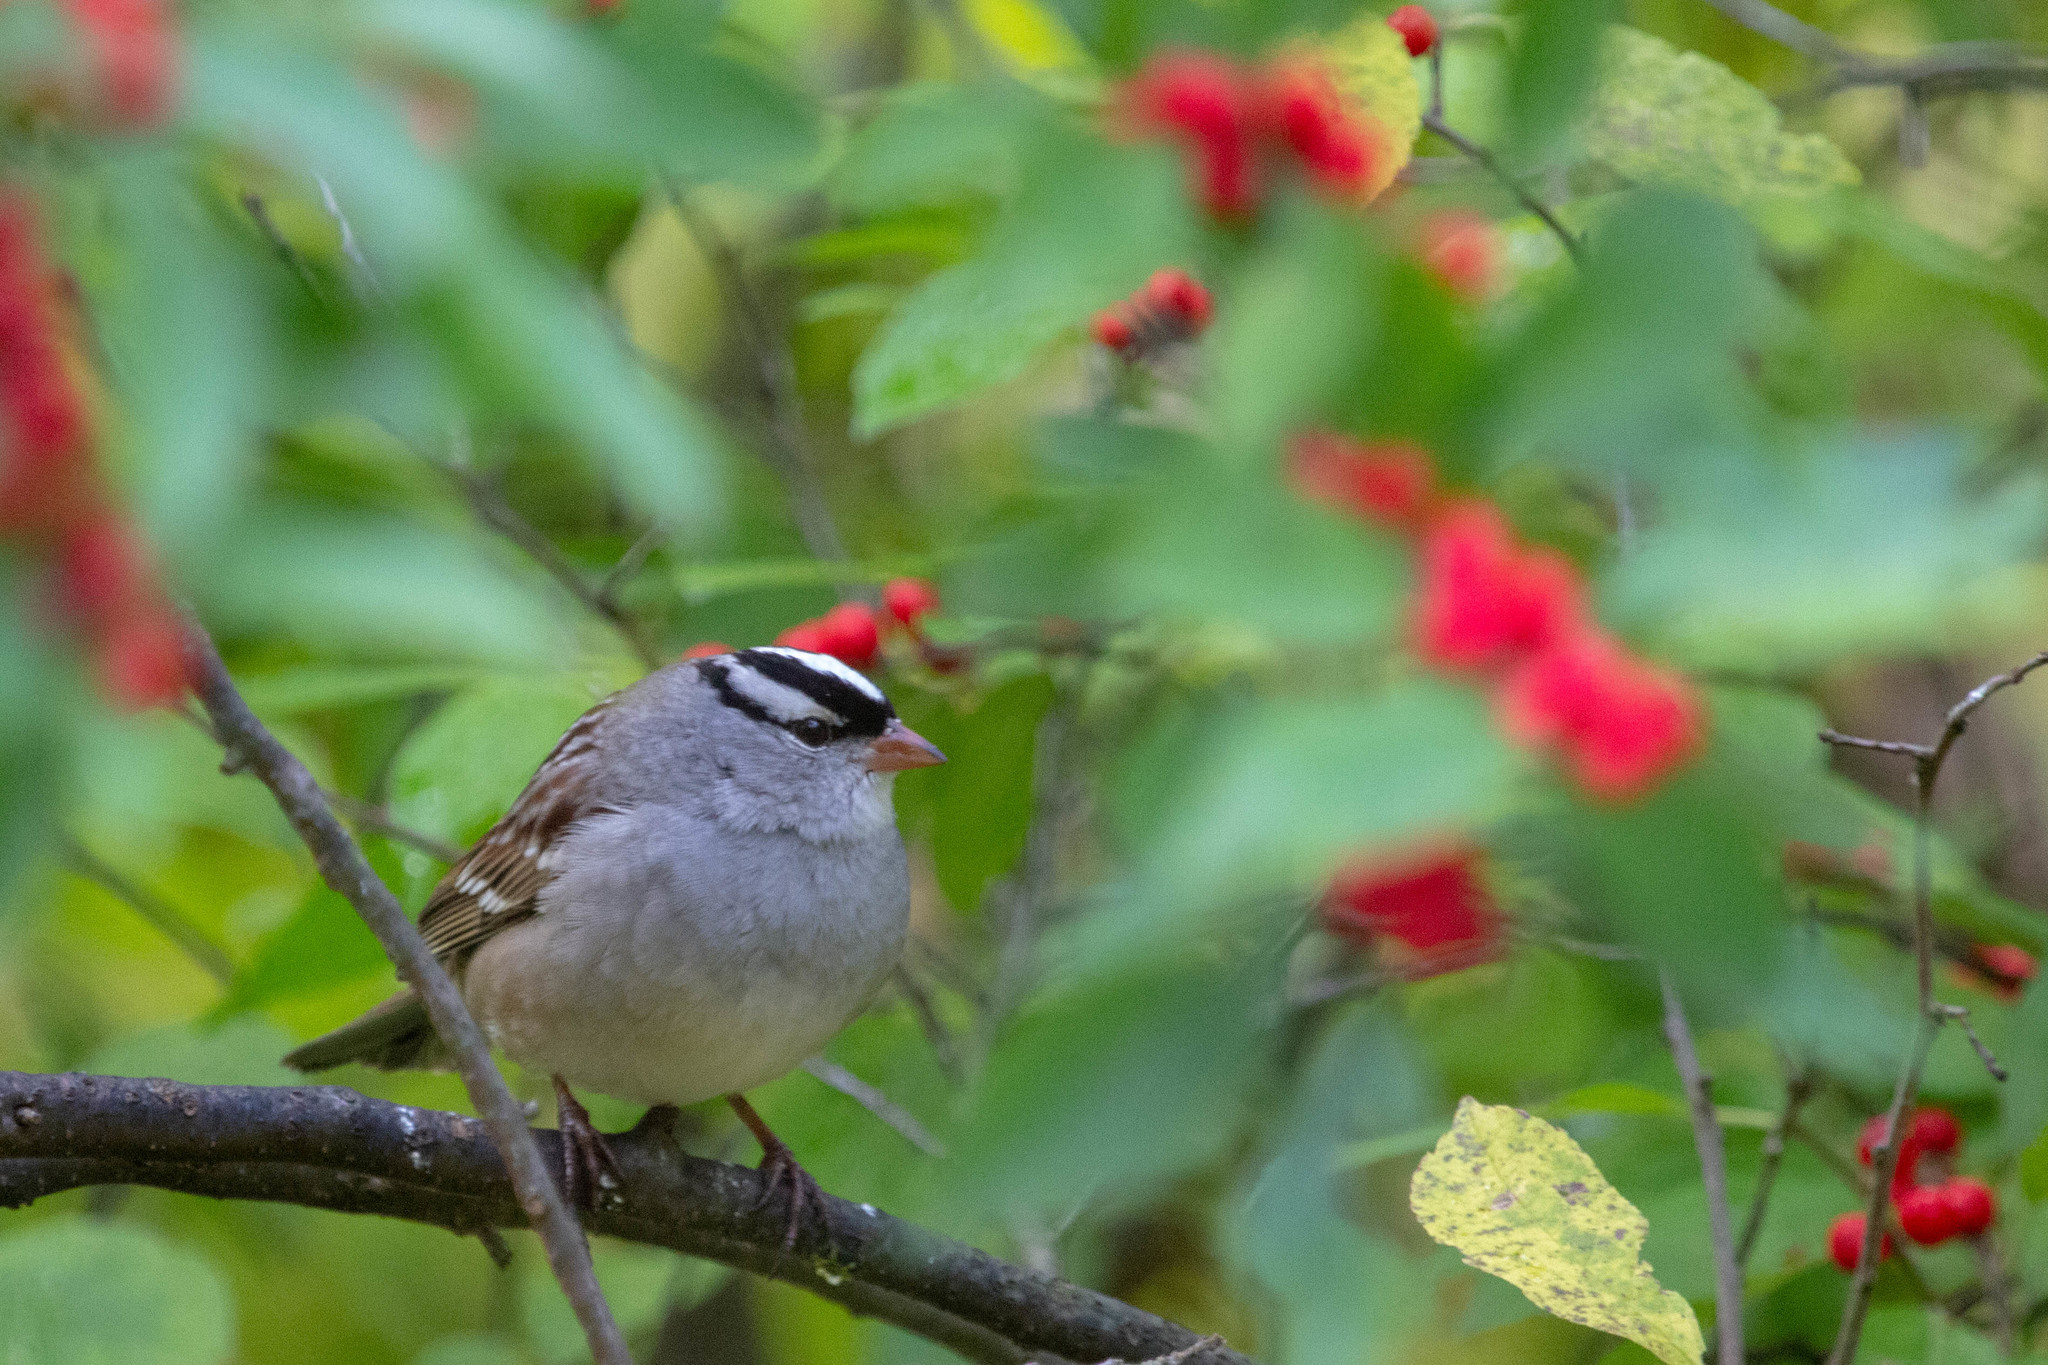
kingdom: Animalia
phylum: Chordata
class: Aves
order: Passeriformes
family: Passerellidae
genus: Zonotrichia
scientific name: Zonotrichia leucophrys
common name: White-crowned sparrow
